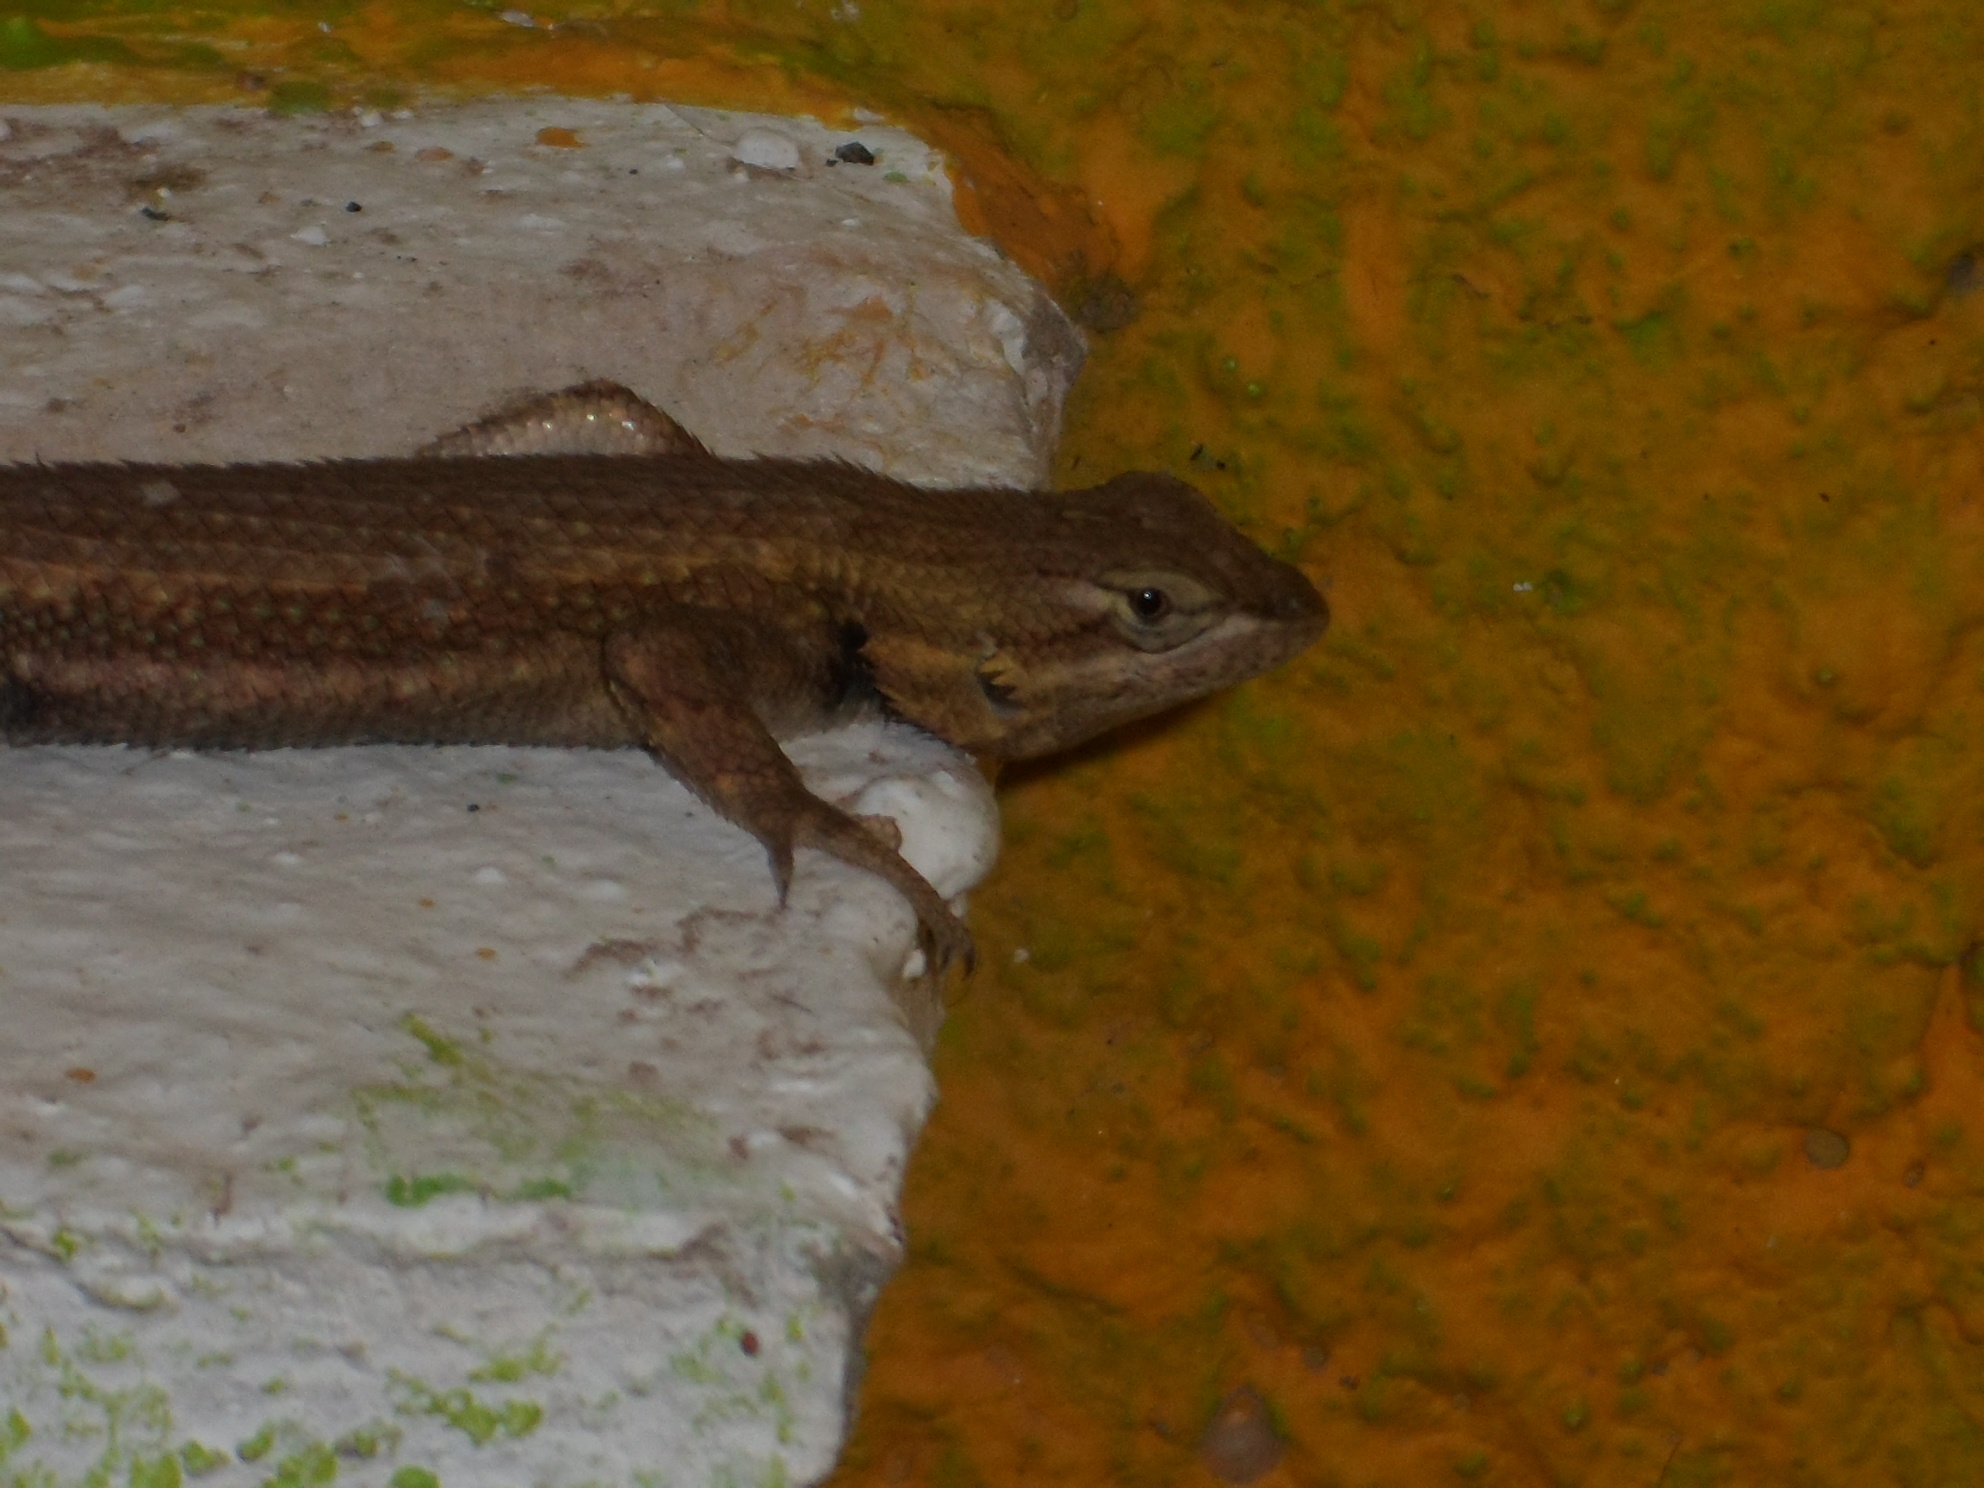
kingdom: Animalia
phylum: Chordata
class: Squamata
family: Phrynosomatidae
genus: Sceloporus
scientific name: Sceloporus edbelli
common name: Bell's spiny lizard
